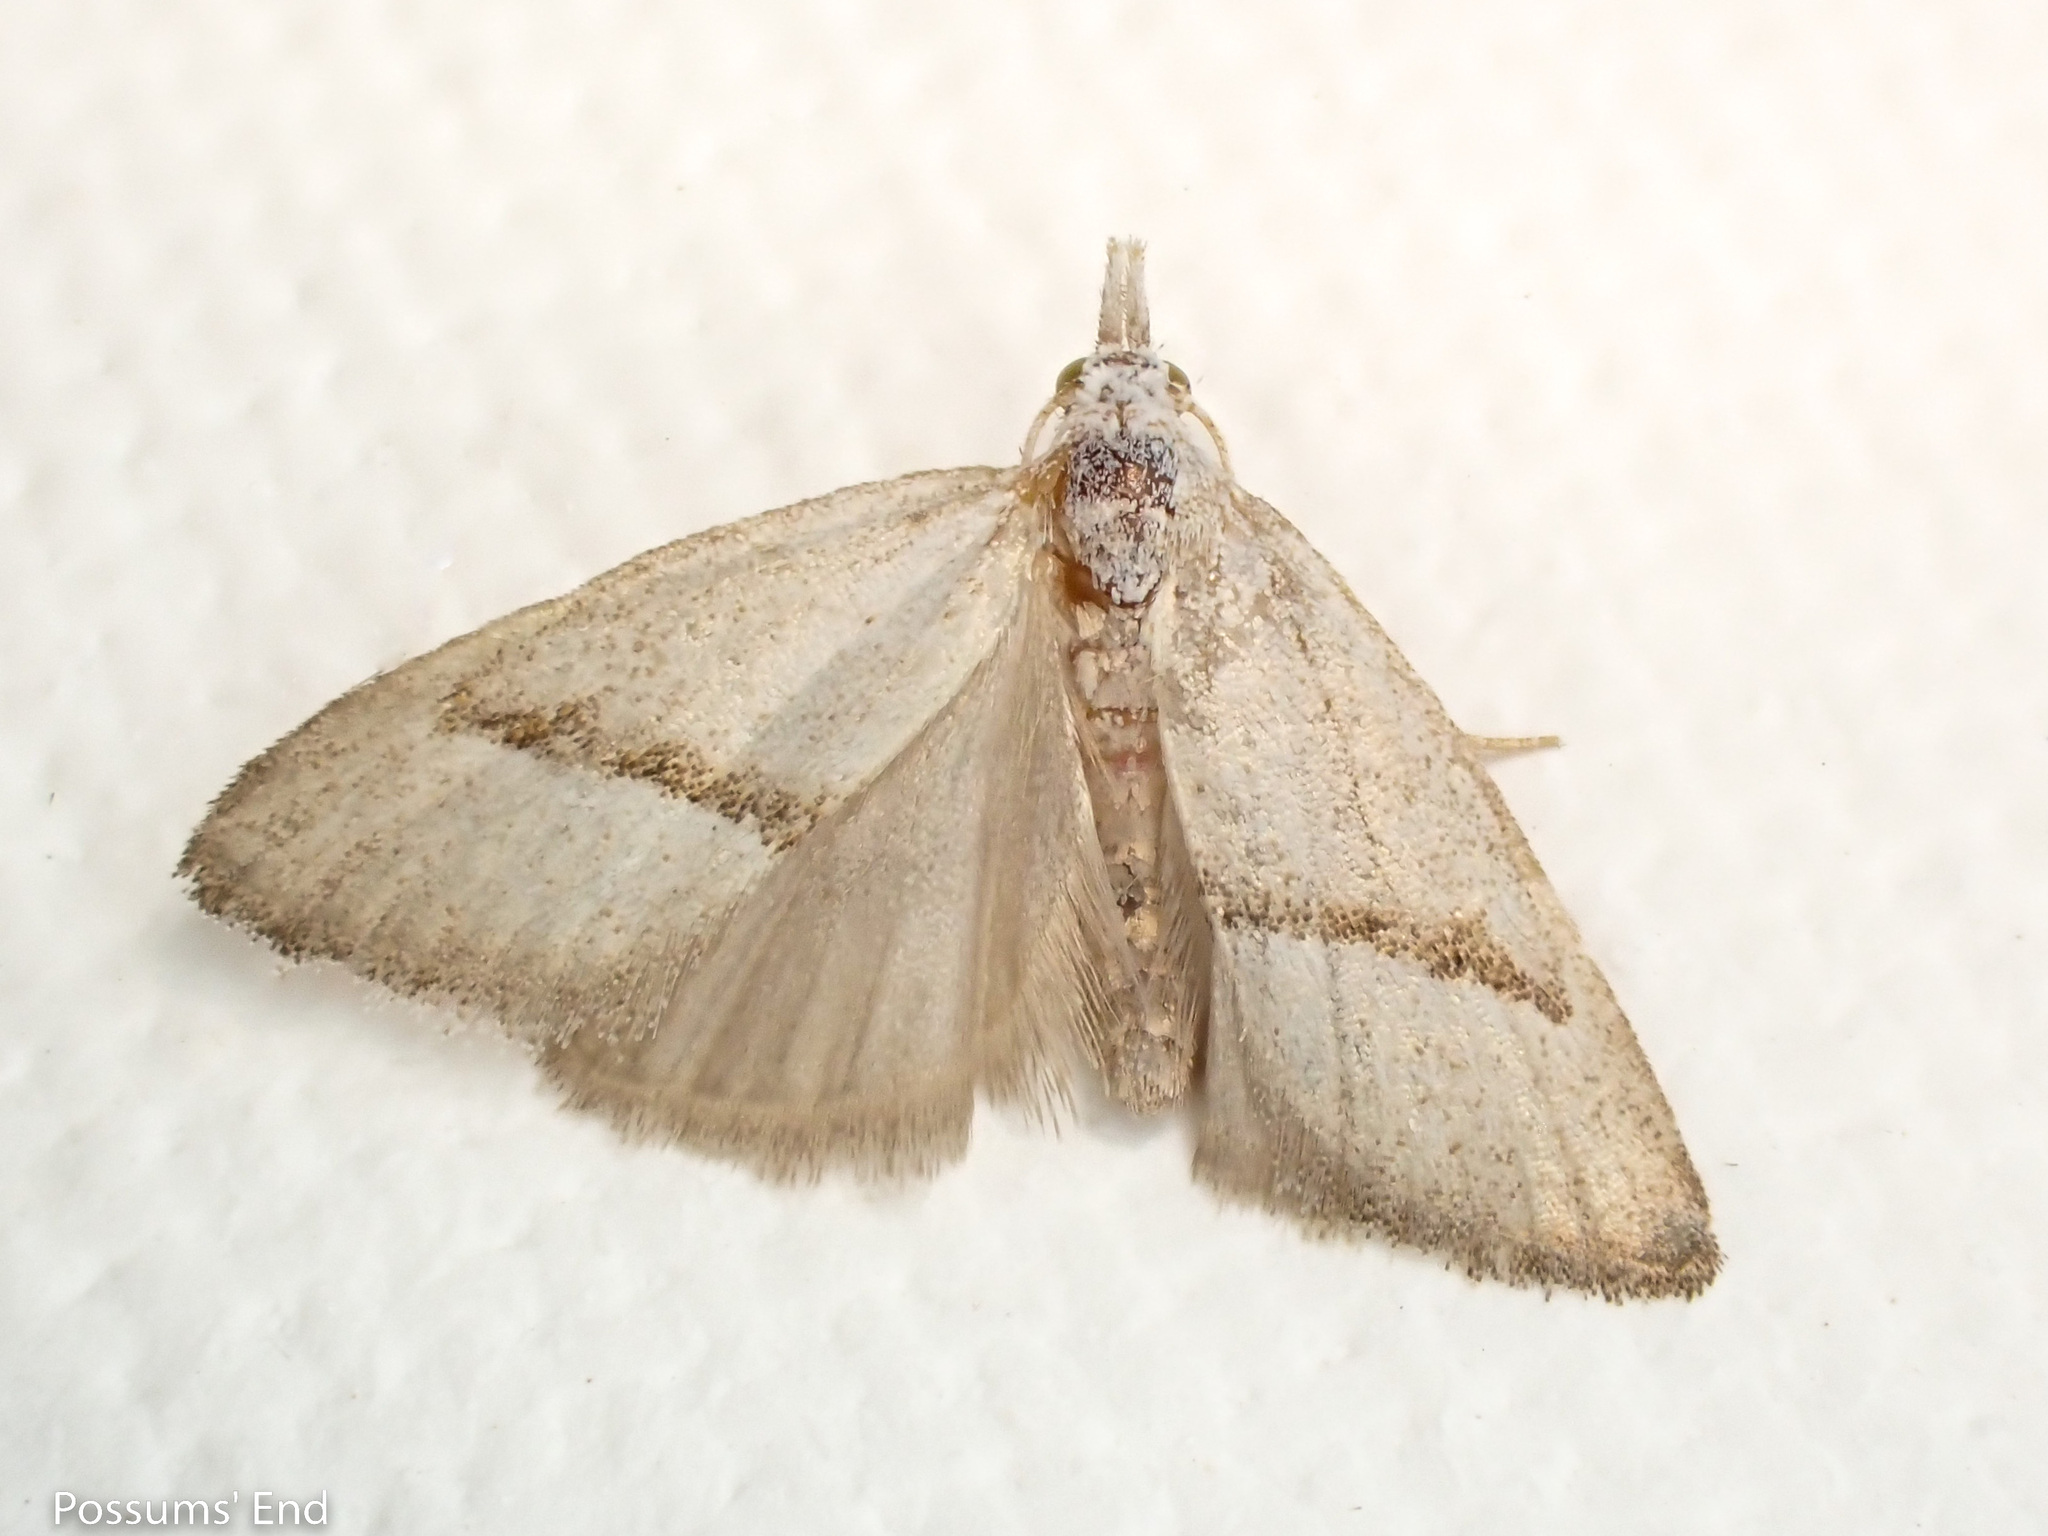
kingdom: Animalia
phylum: Arthropoda
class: Insecta
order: Lepidoptera
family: Nolidae
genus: Nola
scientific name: Nola parvitis
